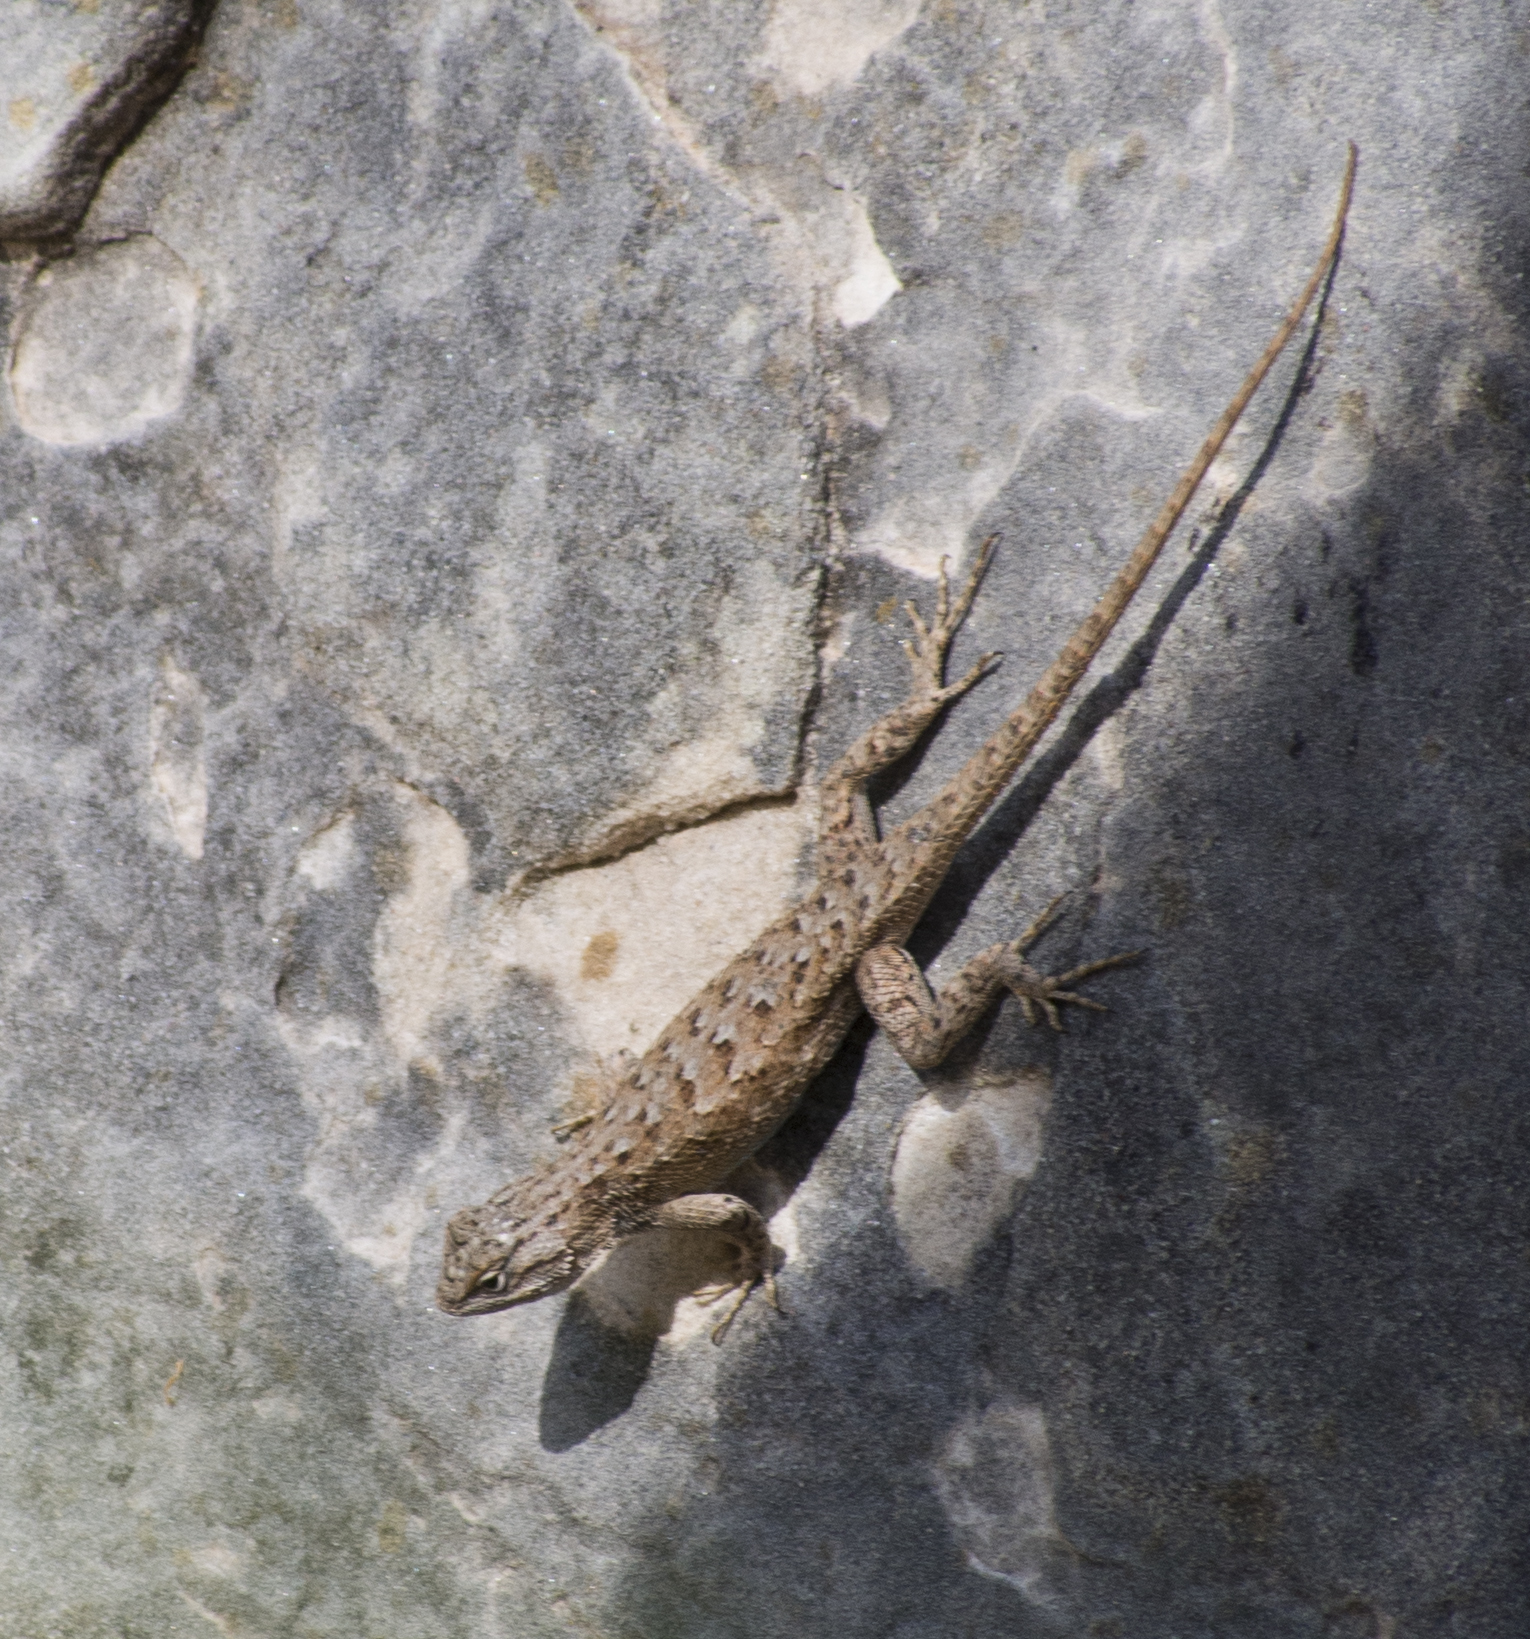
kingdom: Animalia
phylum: Chordata
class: Squamata
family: Phrynosomatidae
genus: Sceloporus
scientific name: Sceloporus tristichus
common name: Plateau fence lizard
